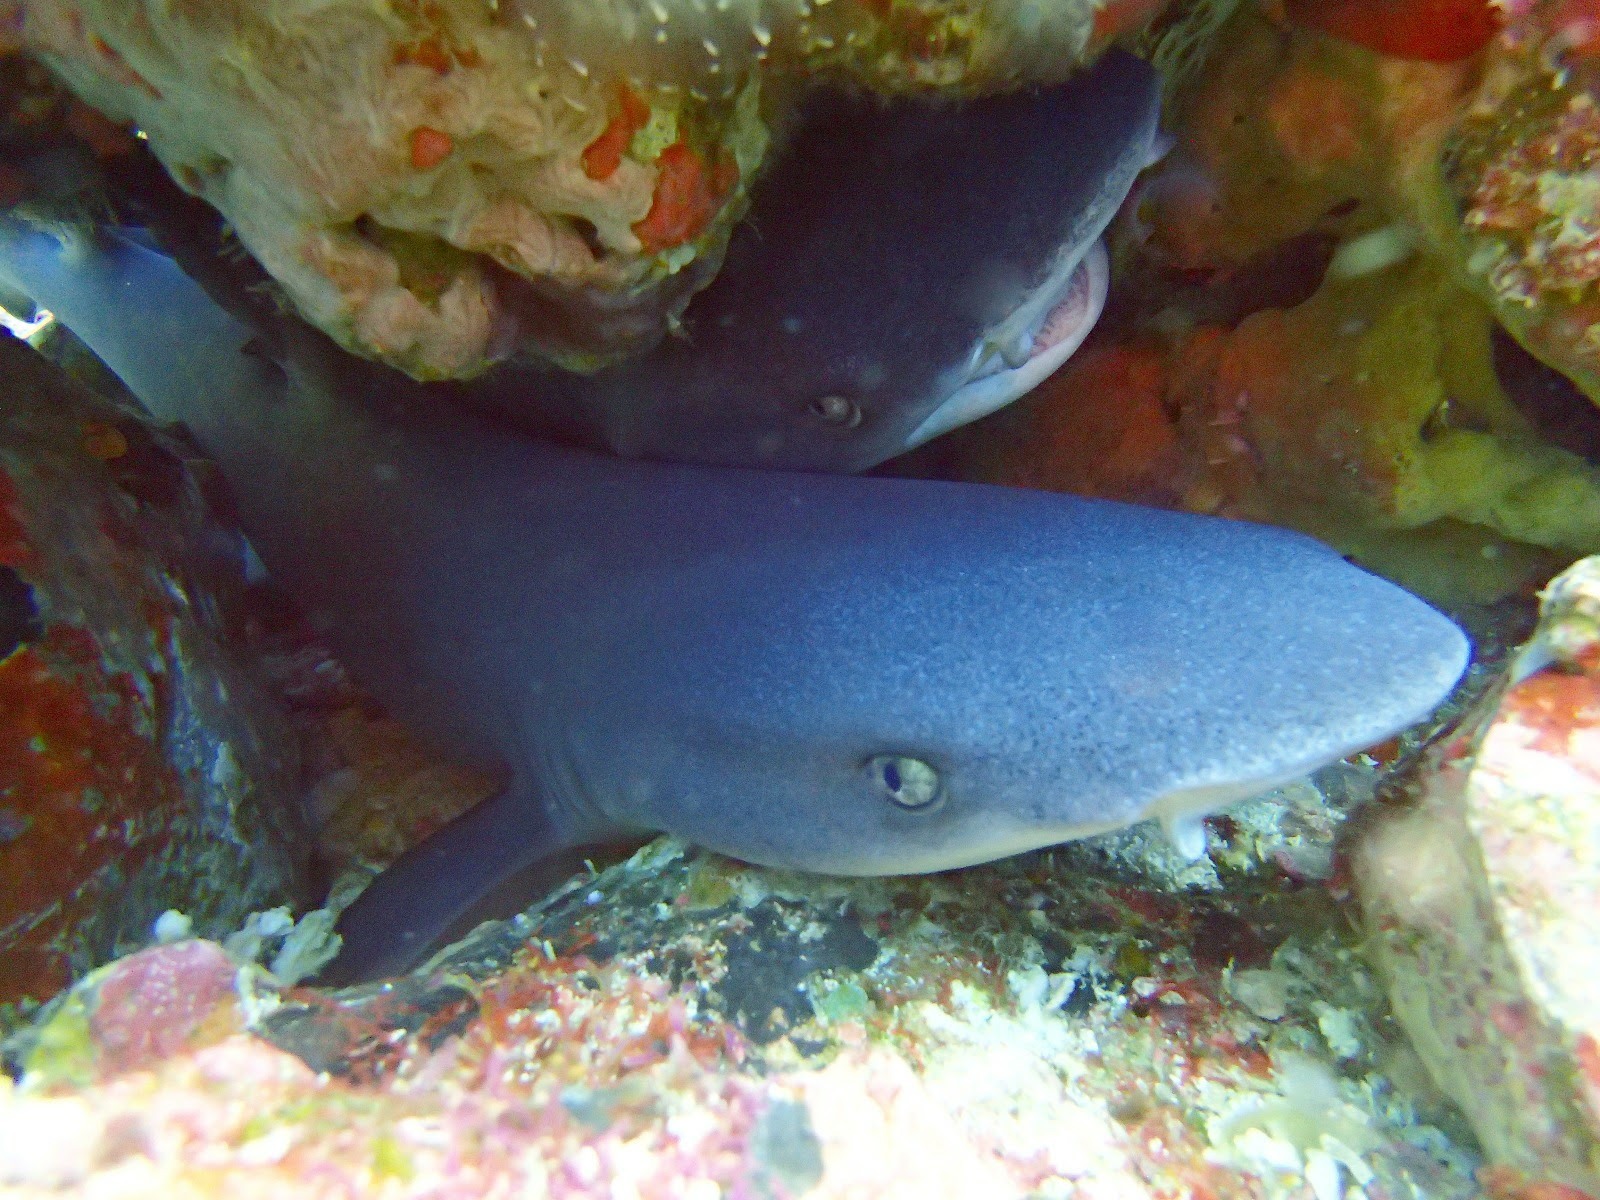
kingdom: Animalia
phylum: Chordata
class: Elasmobranchii
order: Carcharhiniformes
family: Carcharhinidae
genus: Triaenodon
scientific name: Triaenodon obesus
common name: Whitetip reef shark
